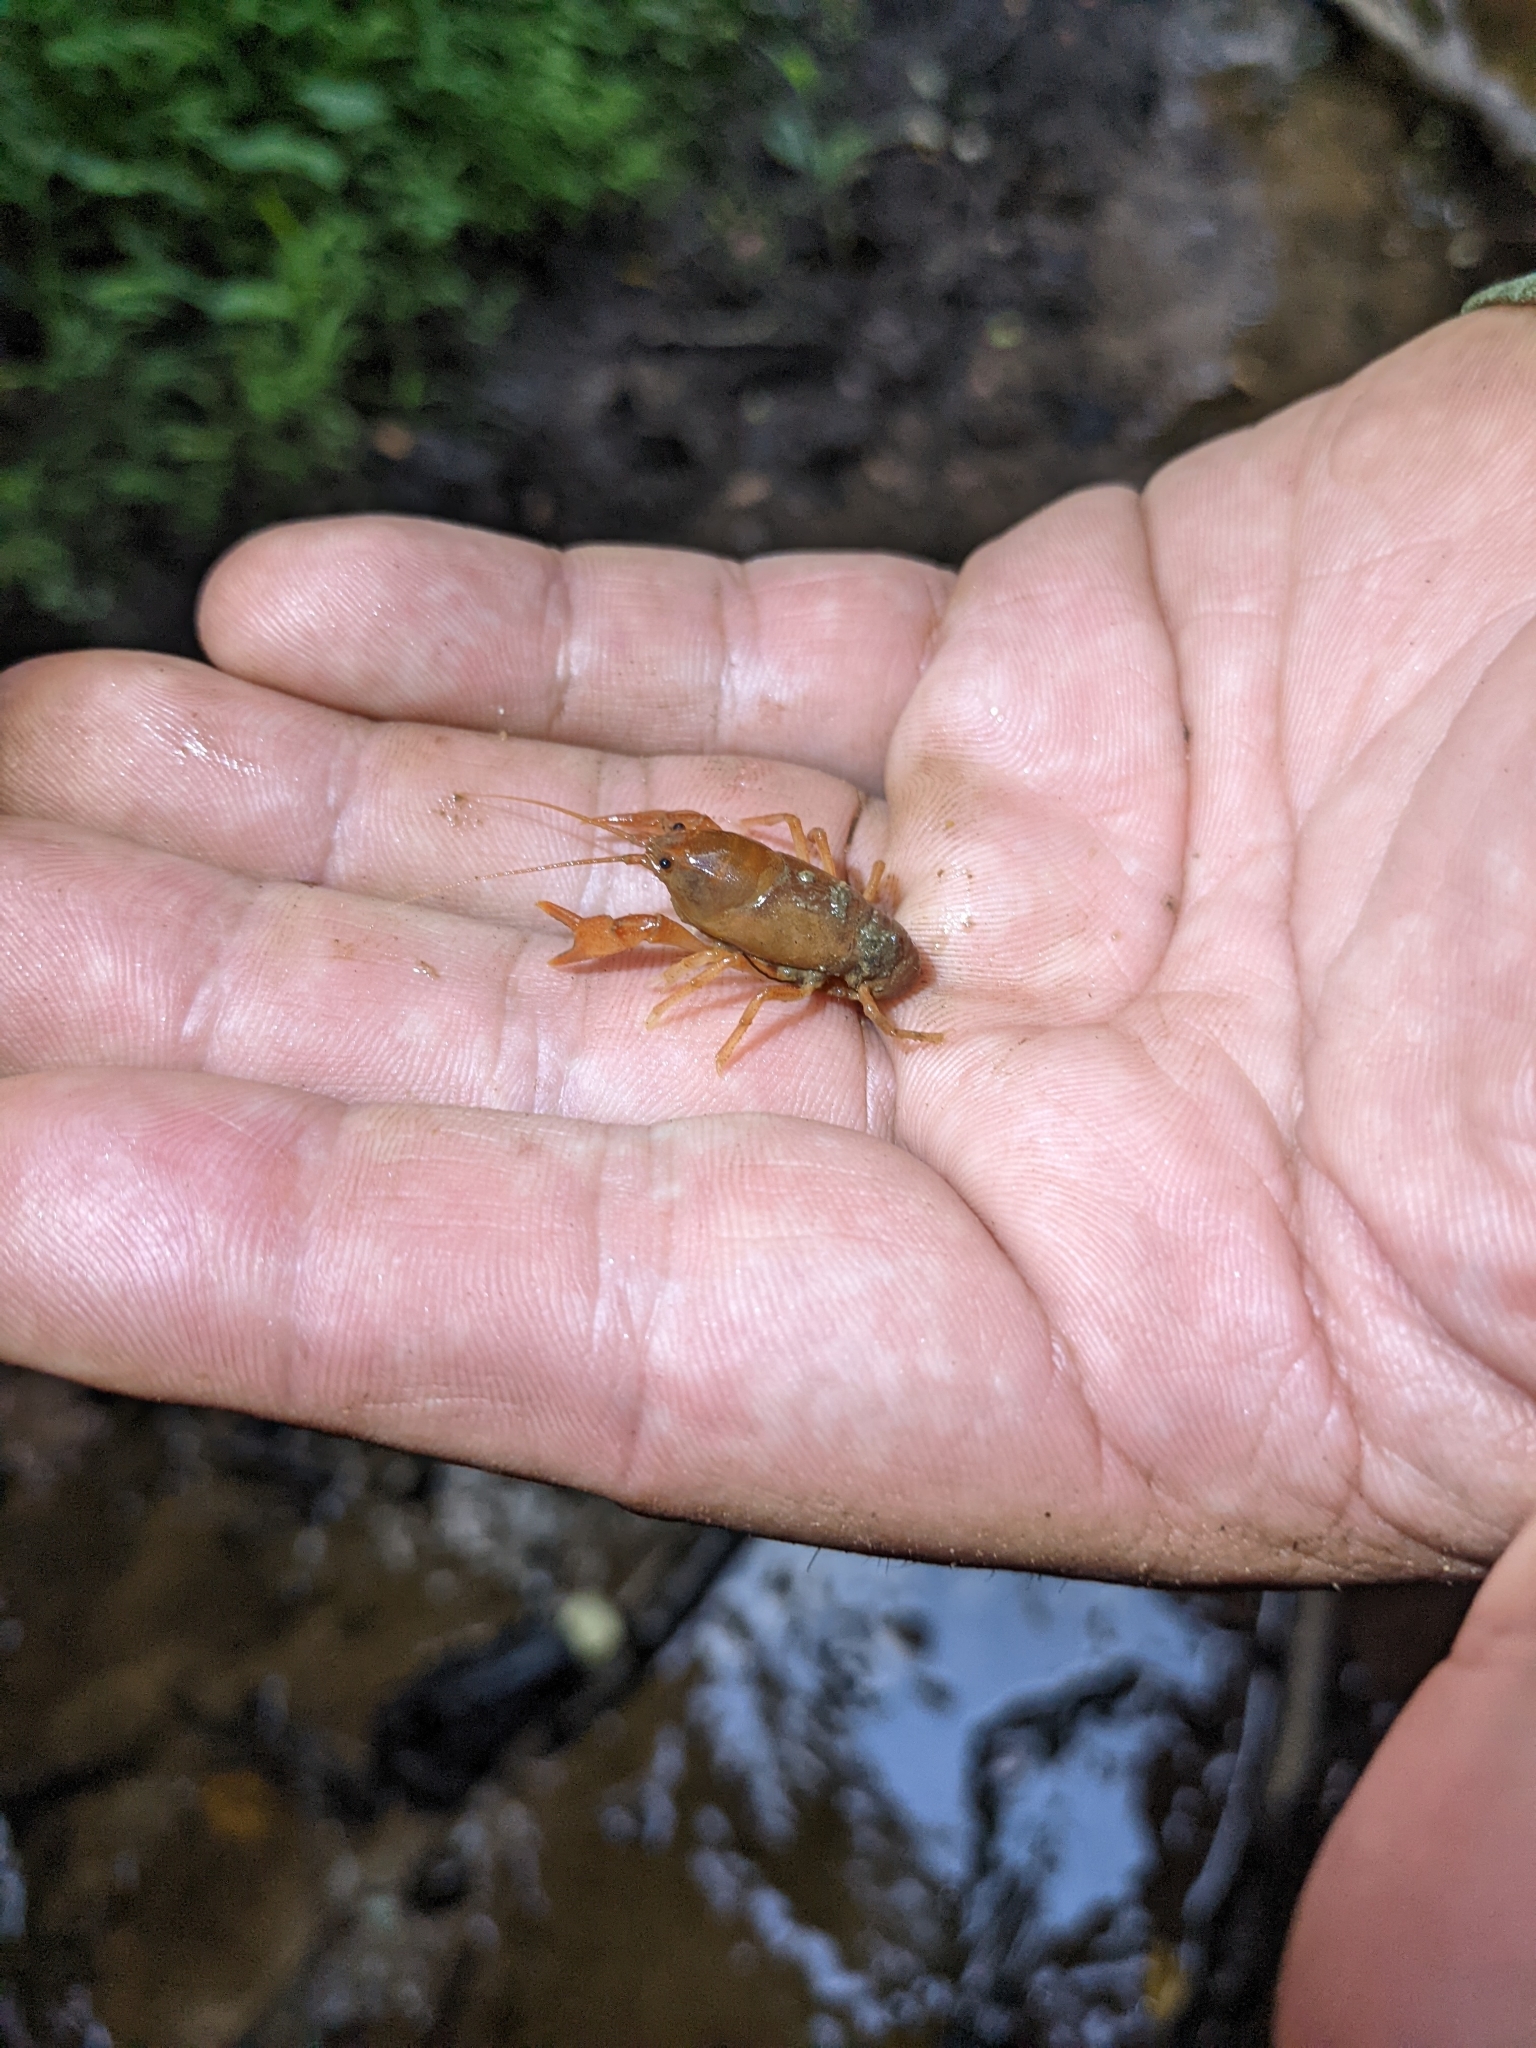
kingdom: Animalia
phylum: Arthropoda
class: Malacostraca
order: Decapoda
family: Cambaridae
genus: Cambarus
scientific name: Cambarus dubius
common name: Upland burrowing crayfish
